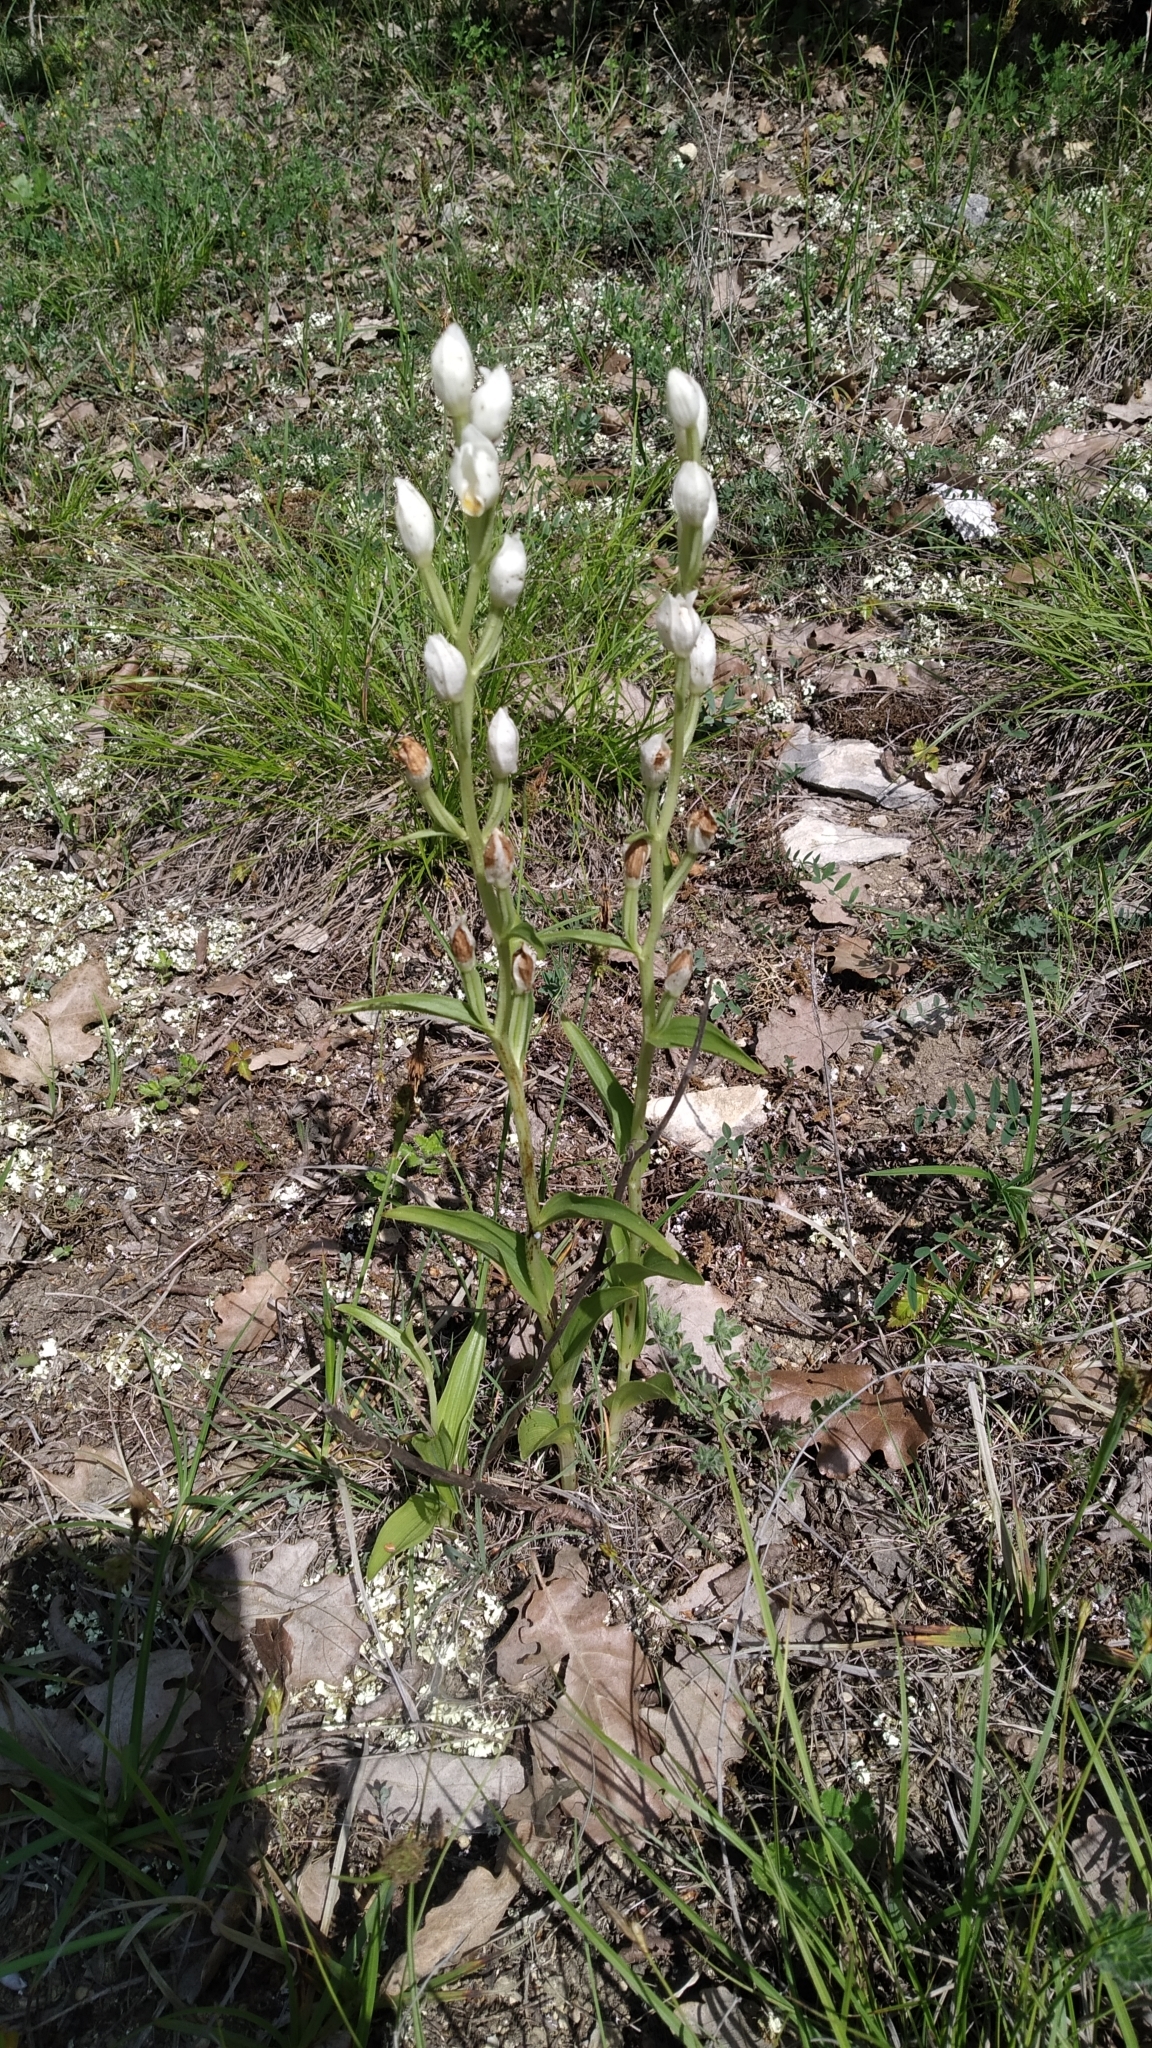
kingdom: Plantae
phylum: Tracheophyta
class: Liliopsida
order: Asparagales
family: Orchidaceae
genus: Cephalanthera
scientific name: Cephalanthera damasonium
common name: White helleborine
